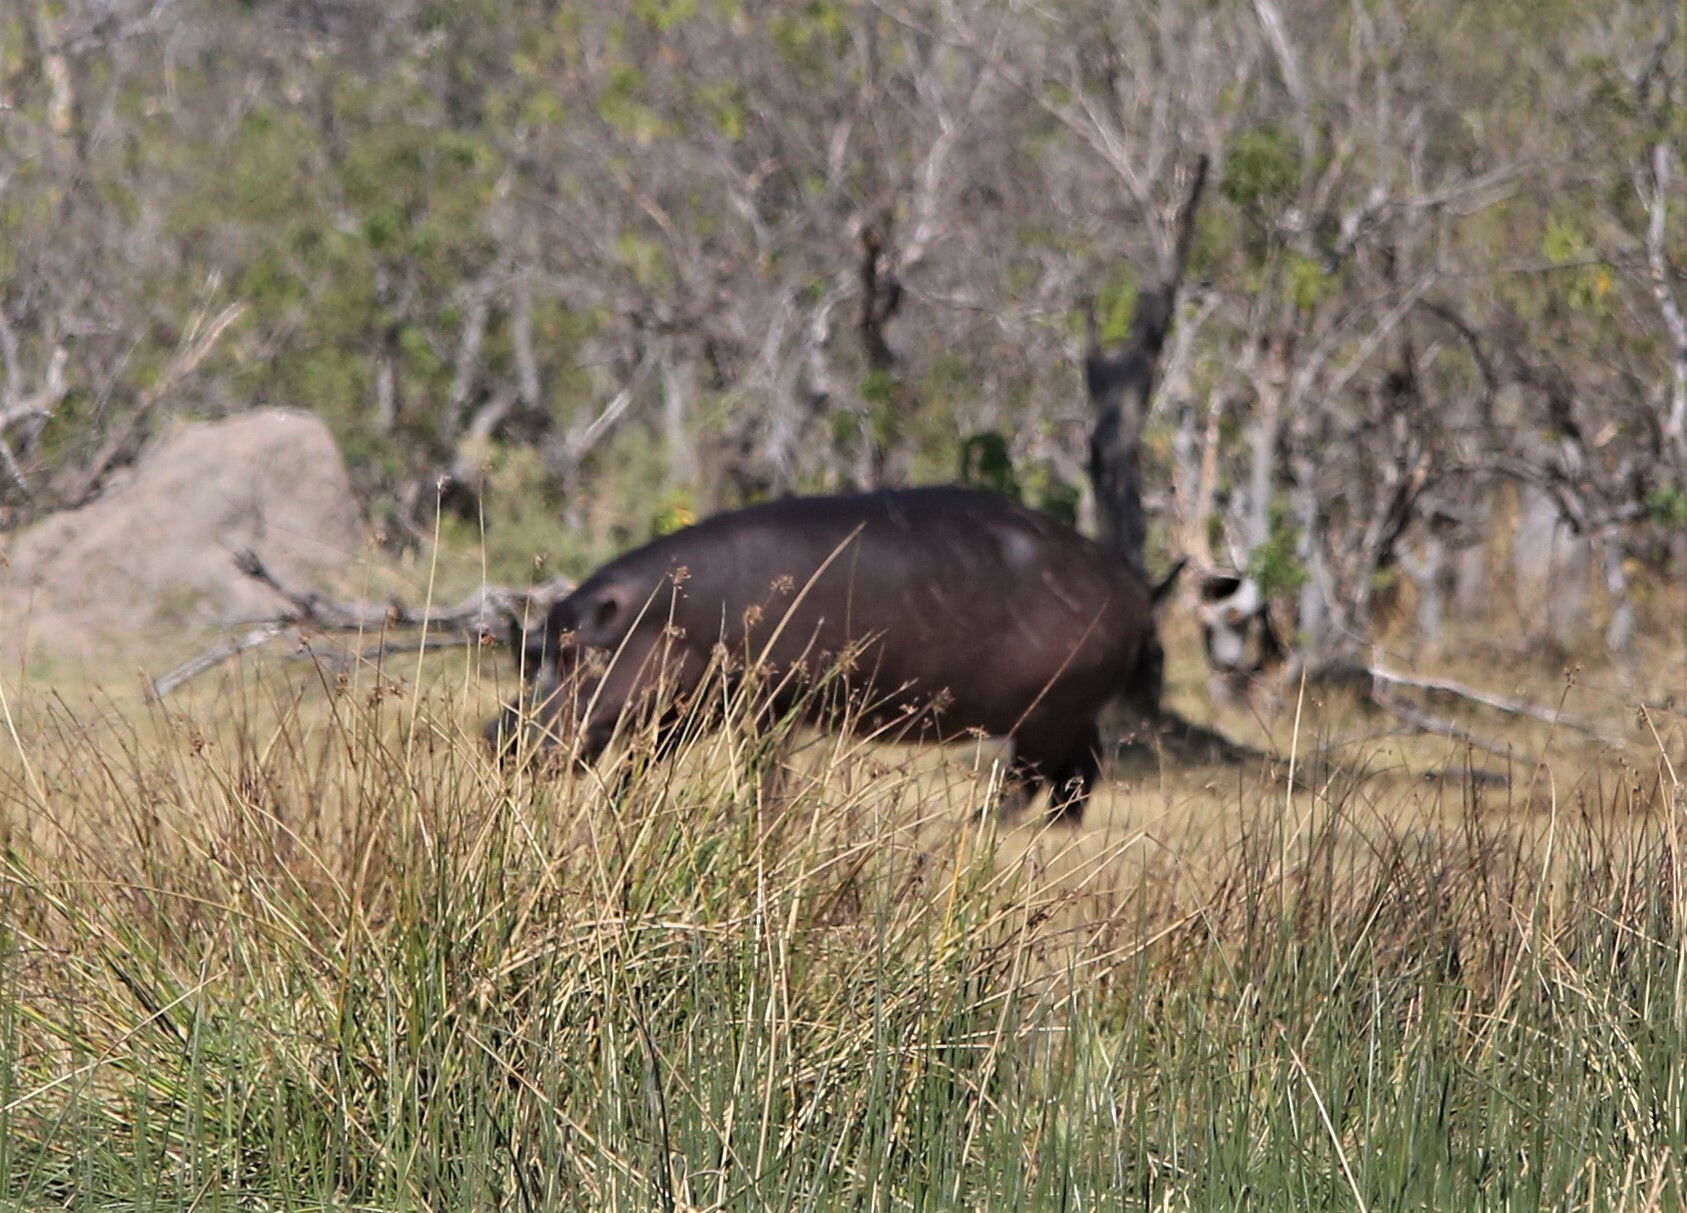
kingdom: Animalia
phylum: Chordata
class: Mammalia
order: Artiodactyla
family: Hippopotamidae
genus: Hippopotamus
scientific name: Hippopotamus amphibius
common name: Common hippopotamus
